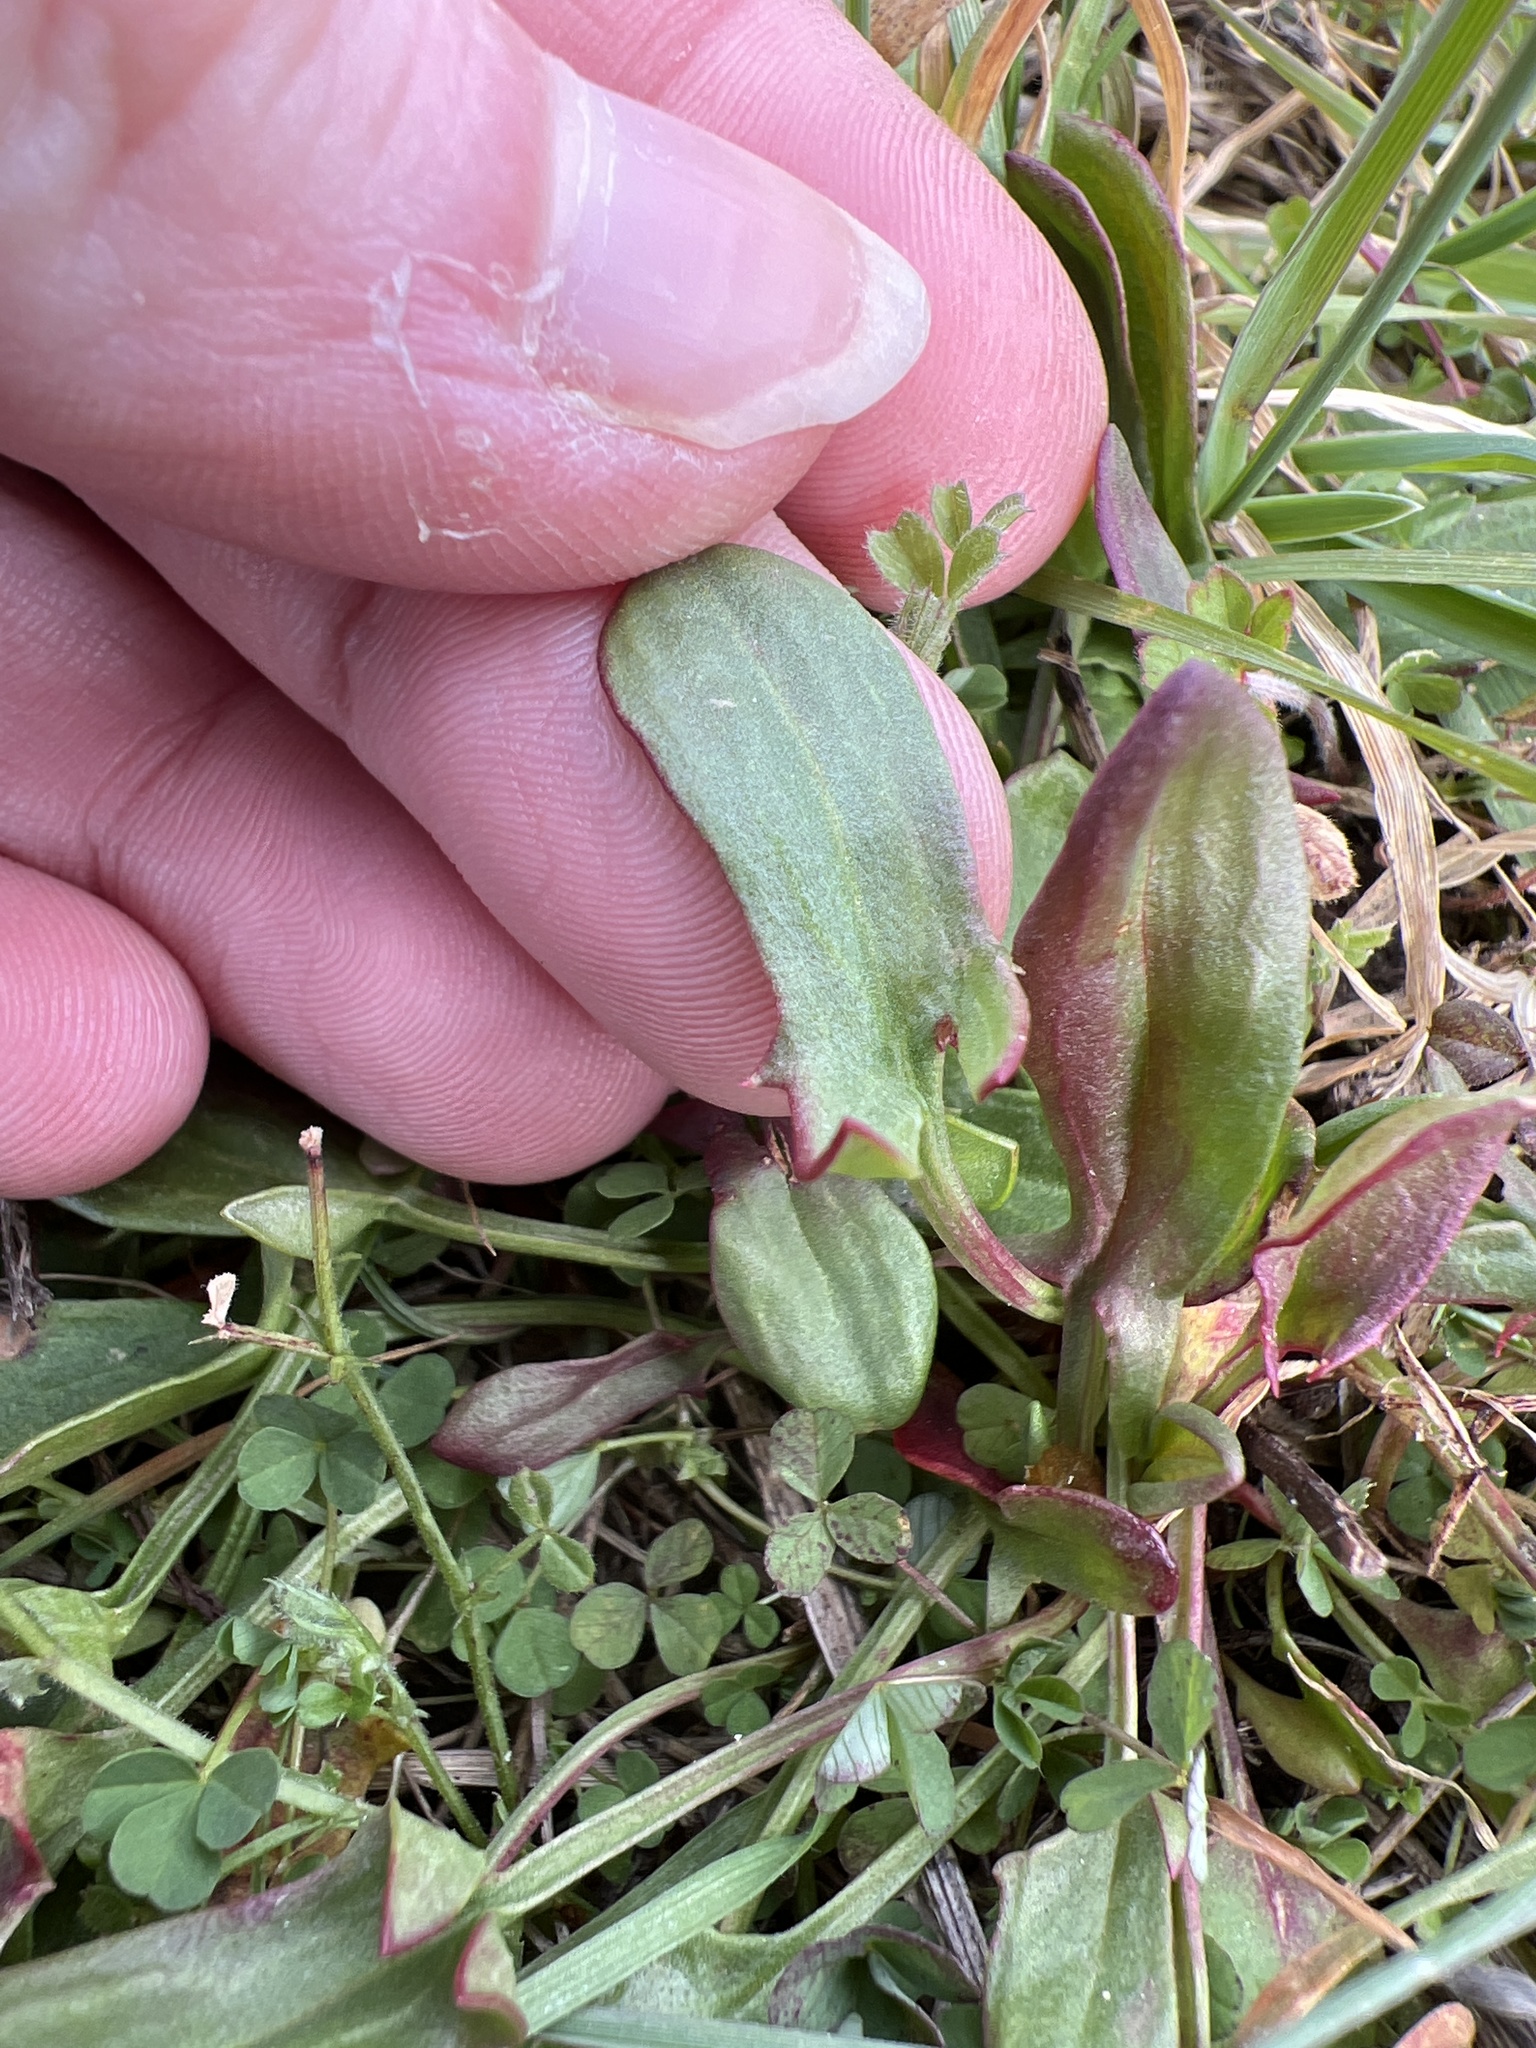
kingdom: Plantae
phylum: Tracheophyta
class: Magnoliopsida
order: Caryophyllales
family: Polygonaceae
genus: Rumex
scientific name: Rumex acetosella
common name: Common sheep sorrel
